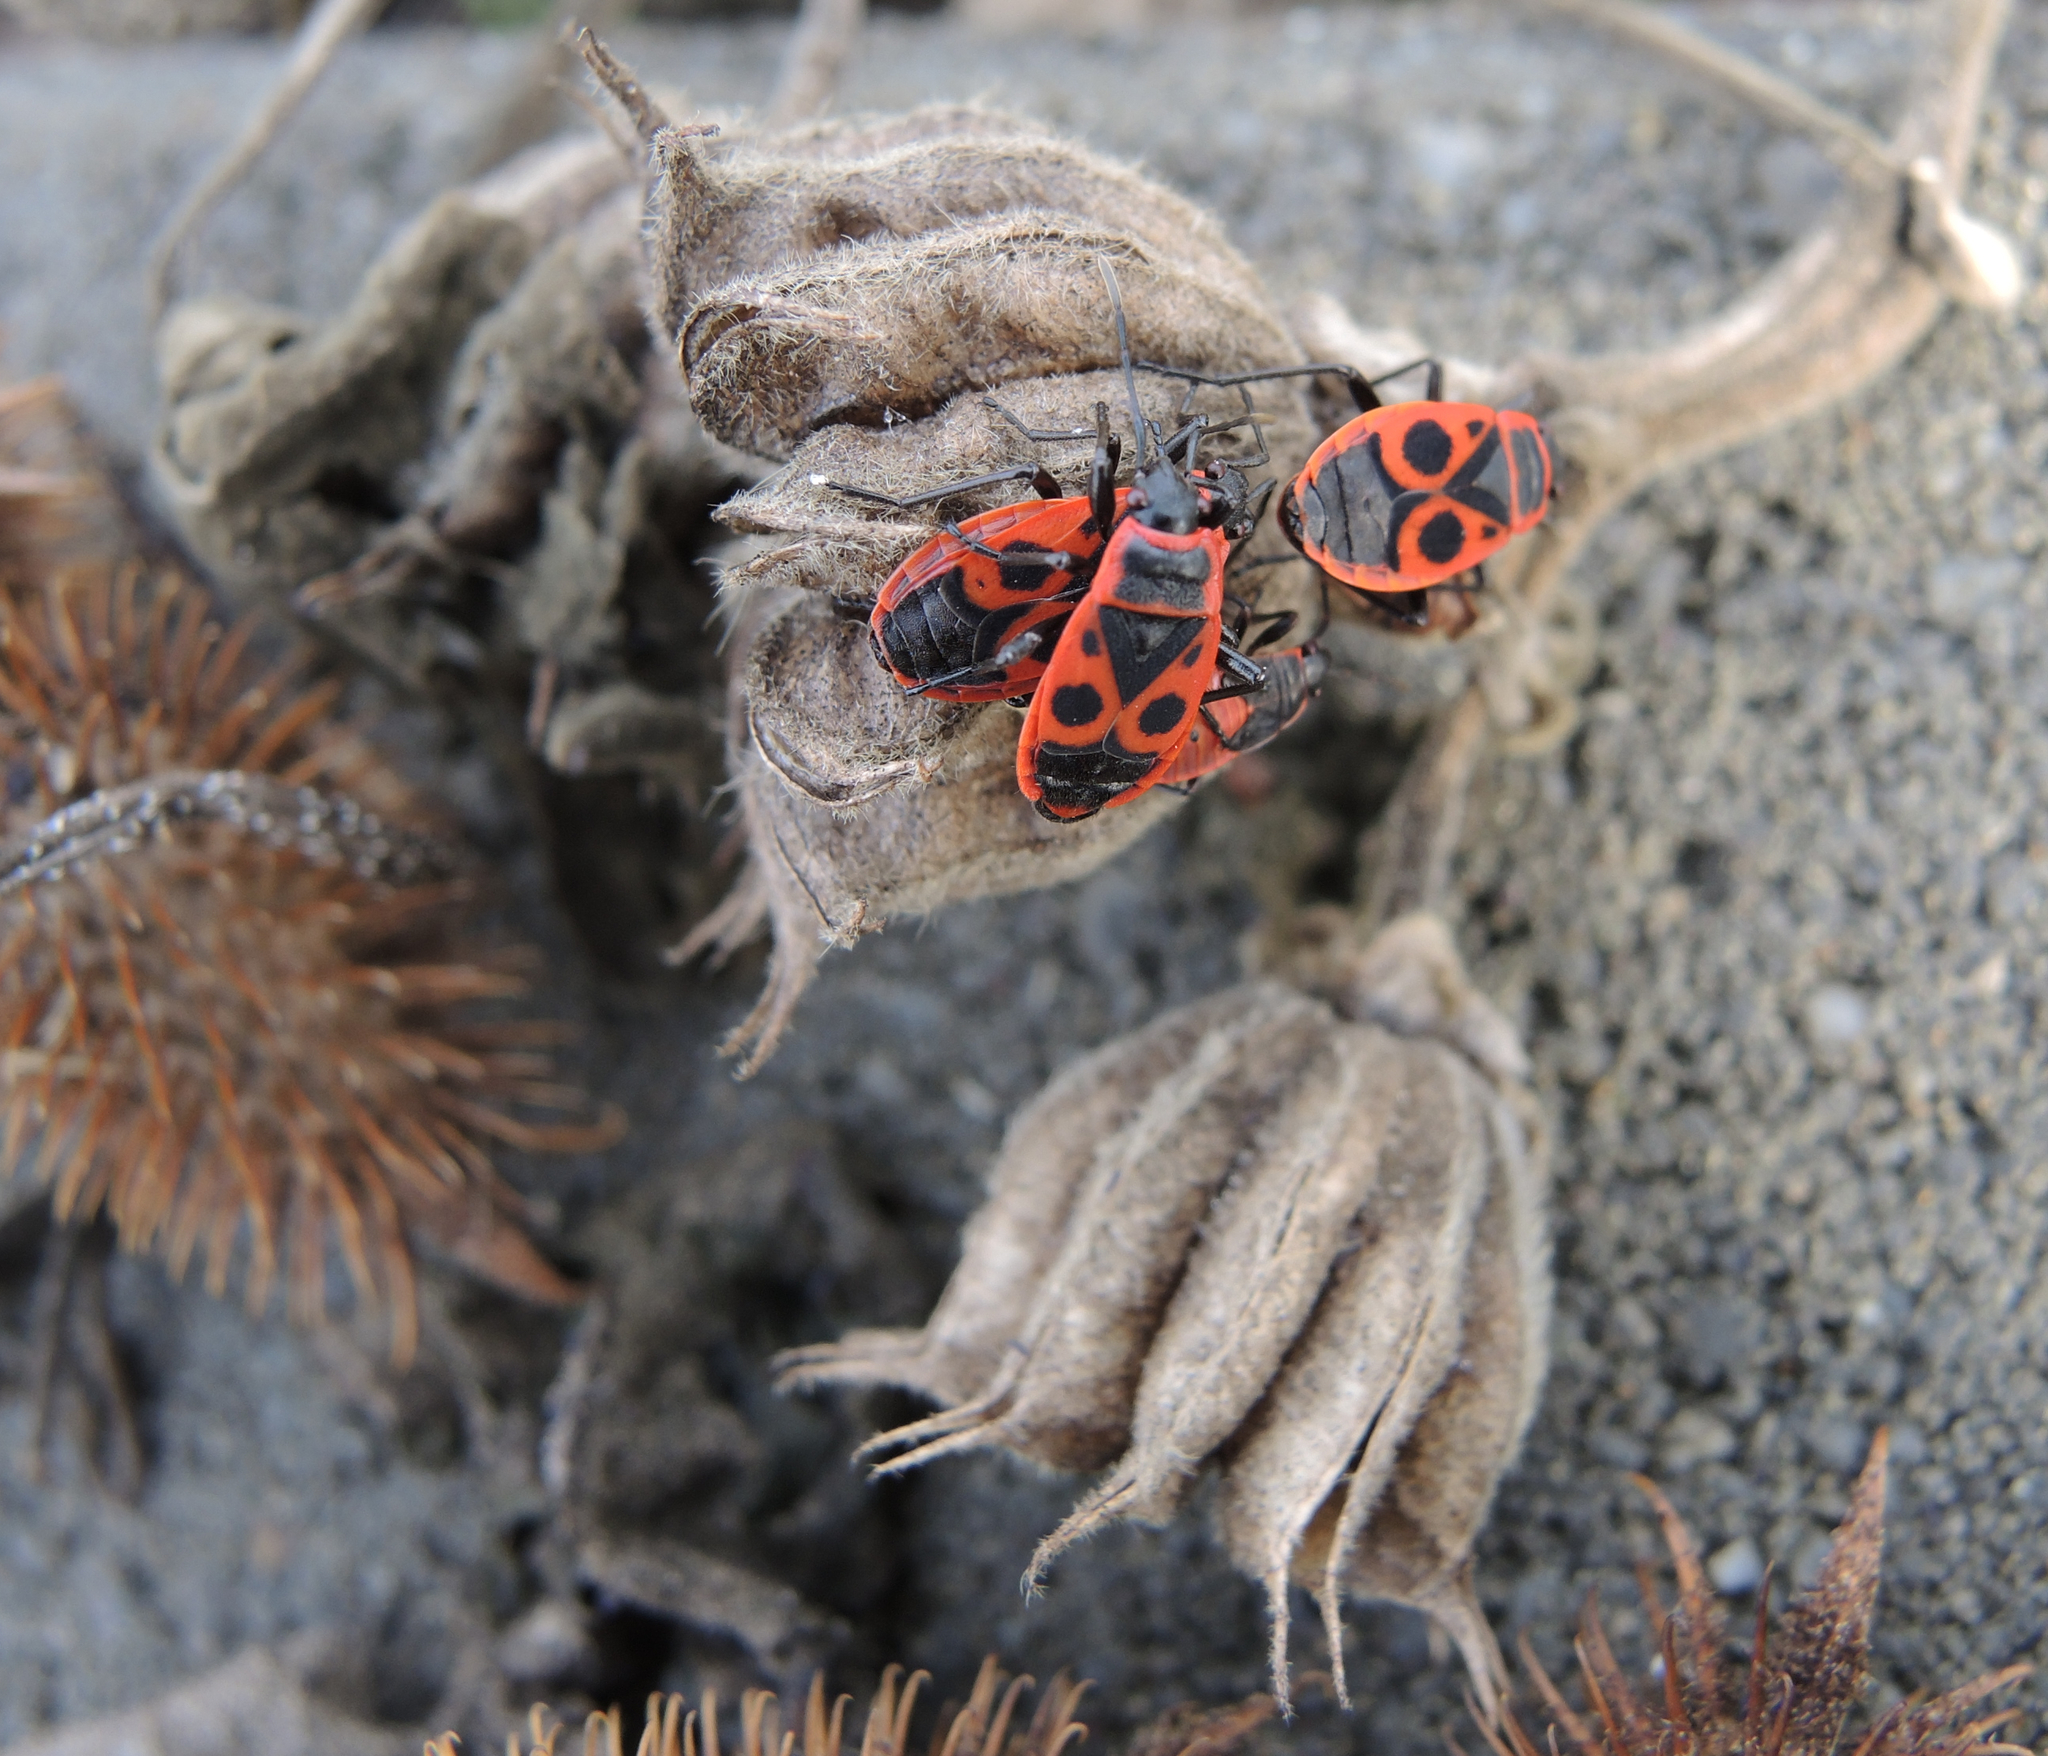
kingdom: Animalia
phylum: Arthropoda
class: Insecta
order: Hemiptera
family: Pyrrhocoridae
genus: Pyrrhocoris
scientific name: Pyrrhocoris apterus
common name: Firebug
